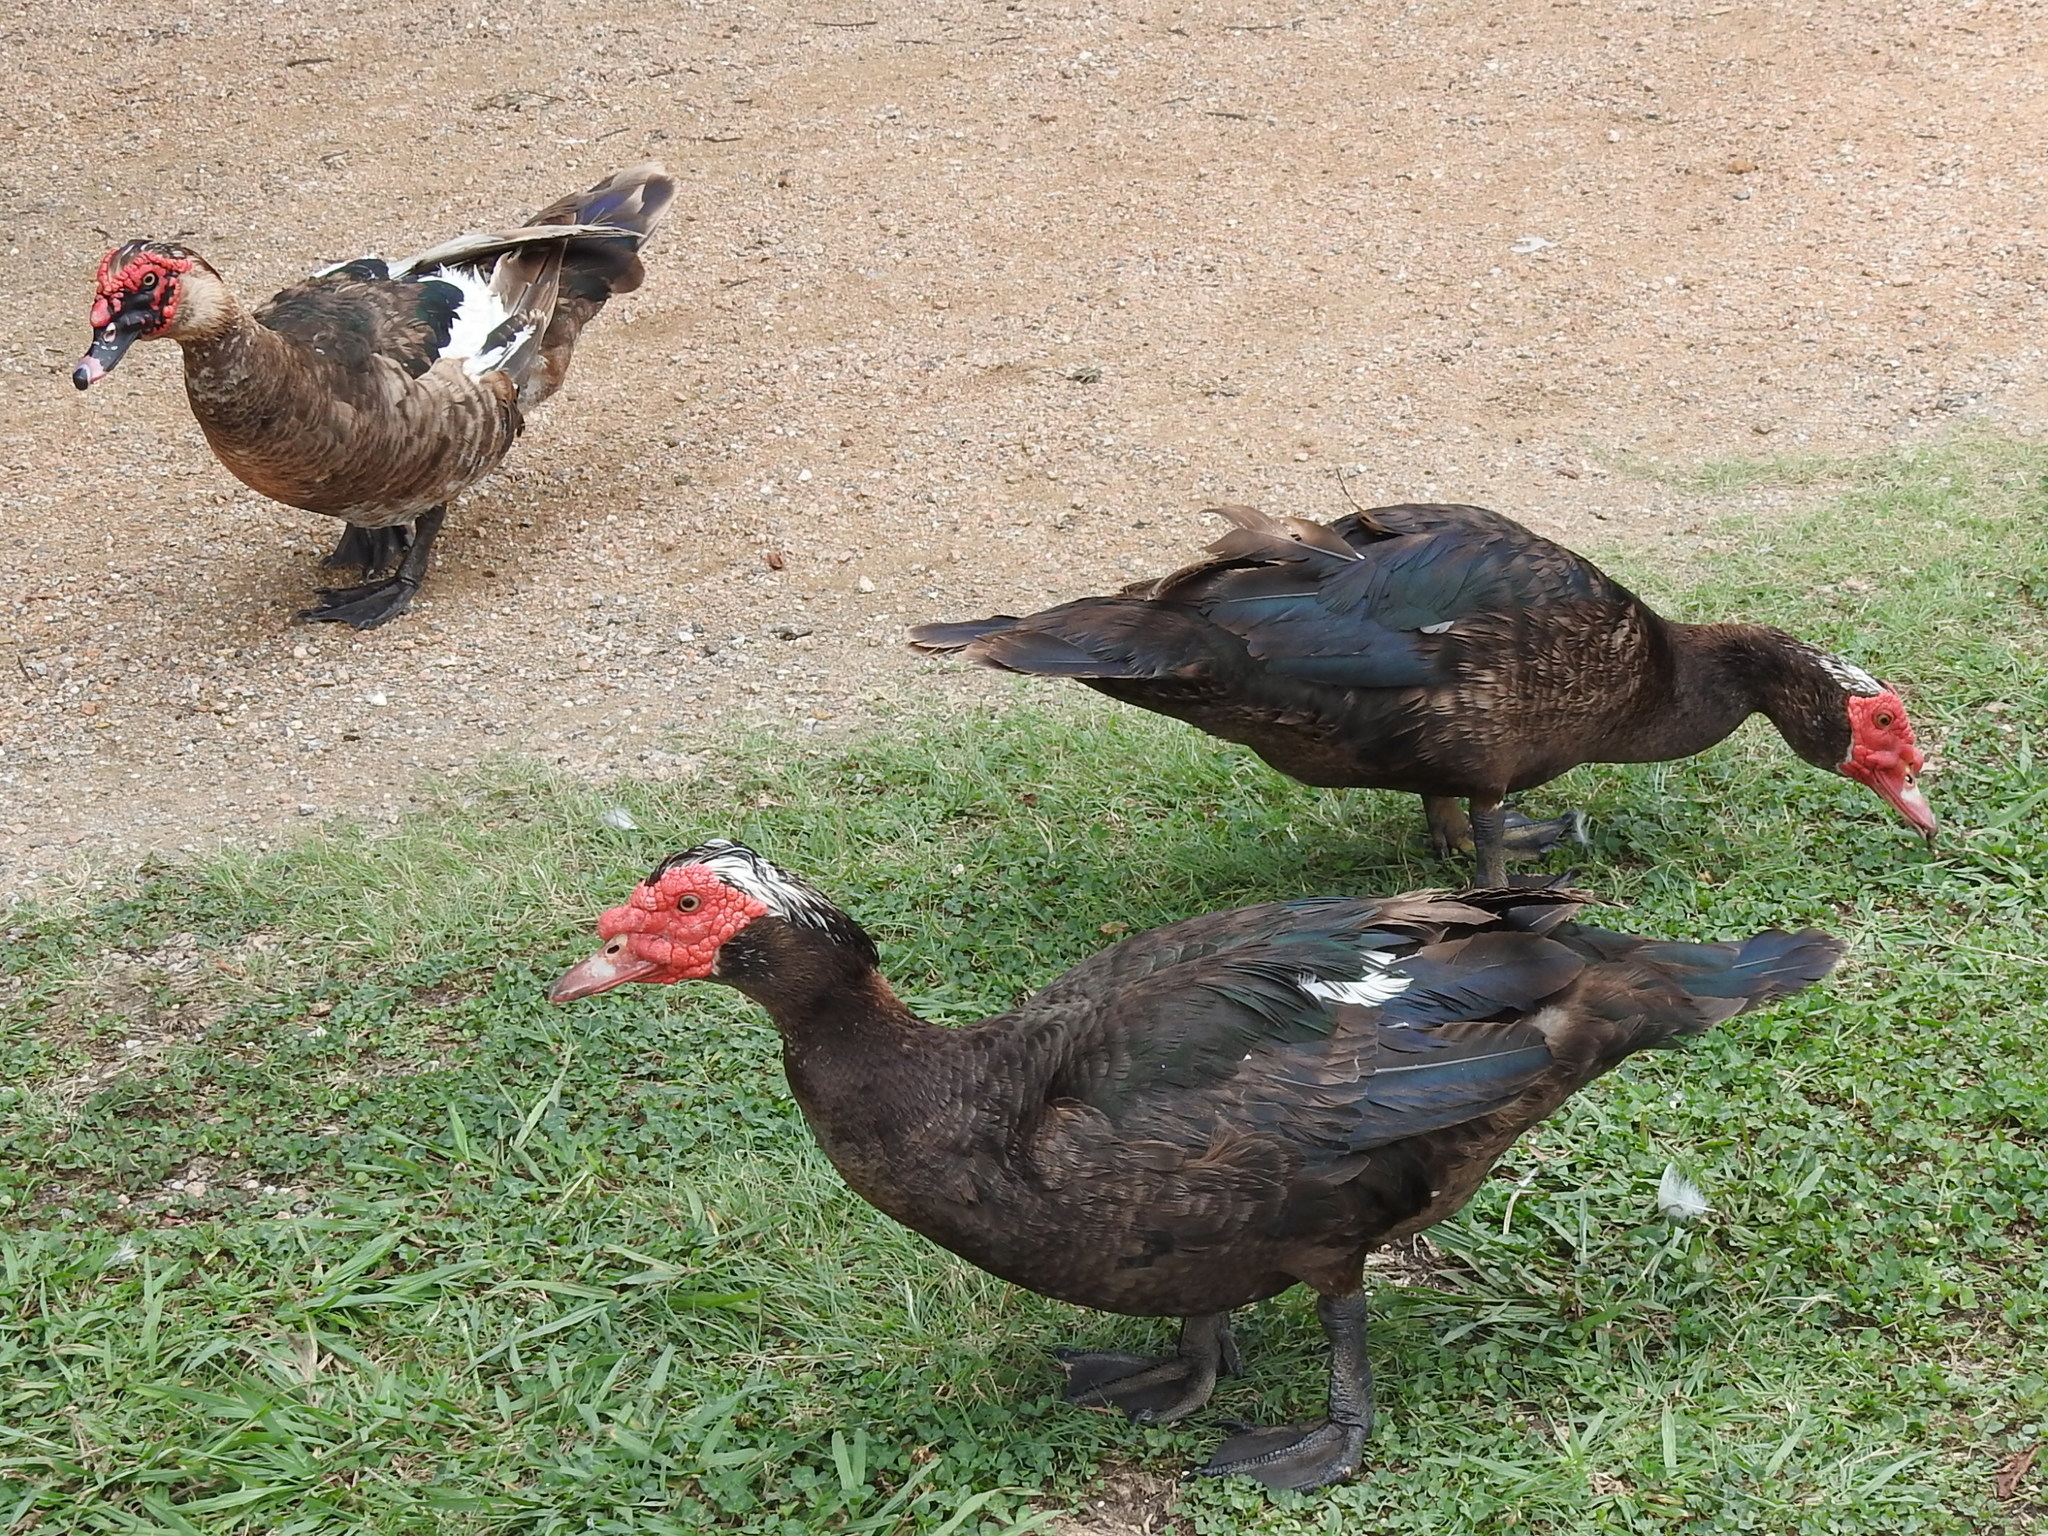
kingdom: Animalia
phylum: Chordata
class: Aves
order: Anseriformes
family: Anatidae
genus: Cairina
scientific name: Cairina moschata
